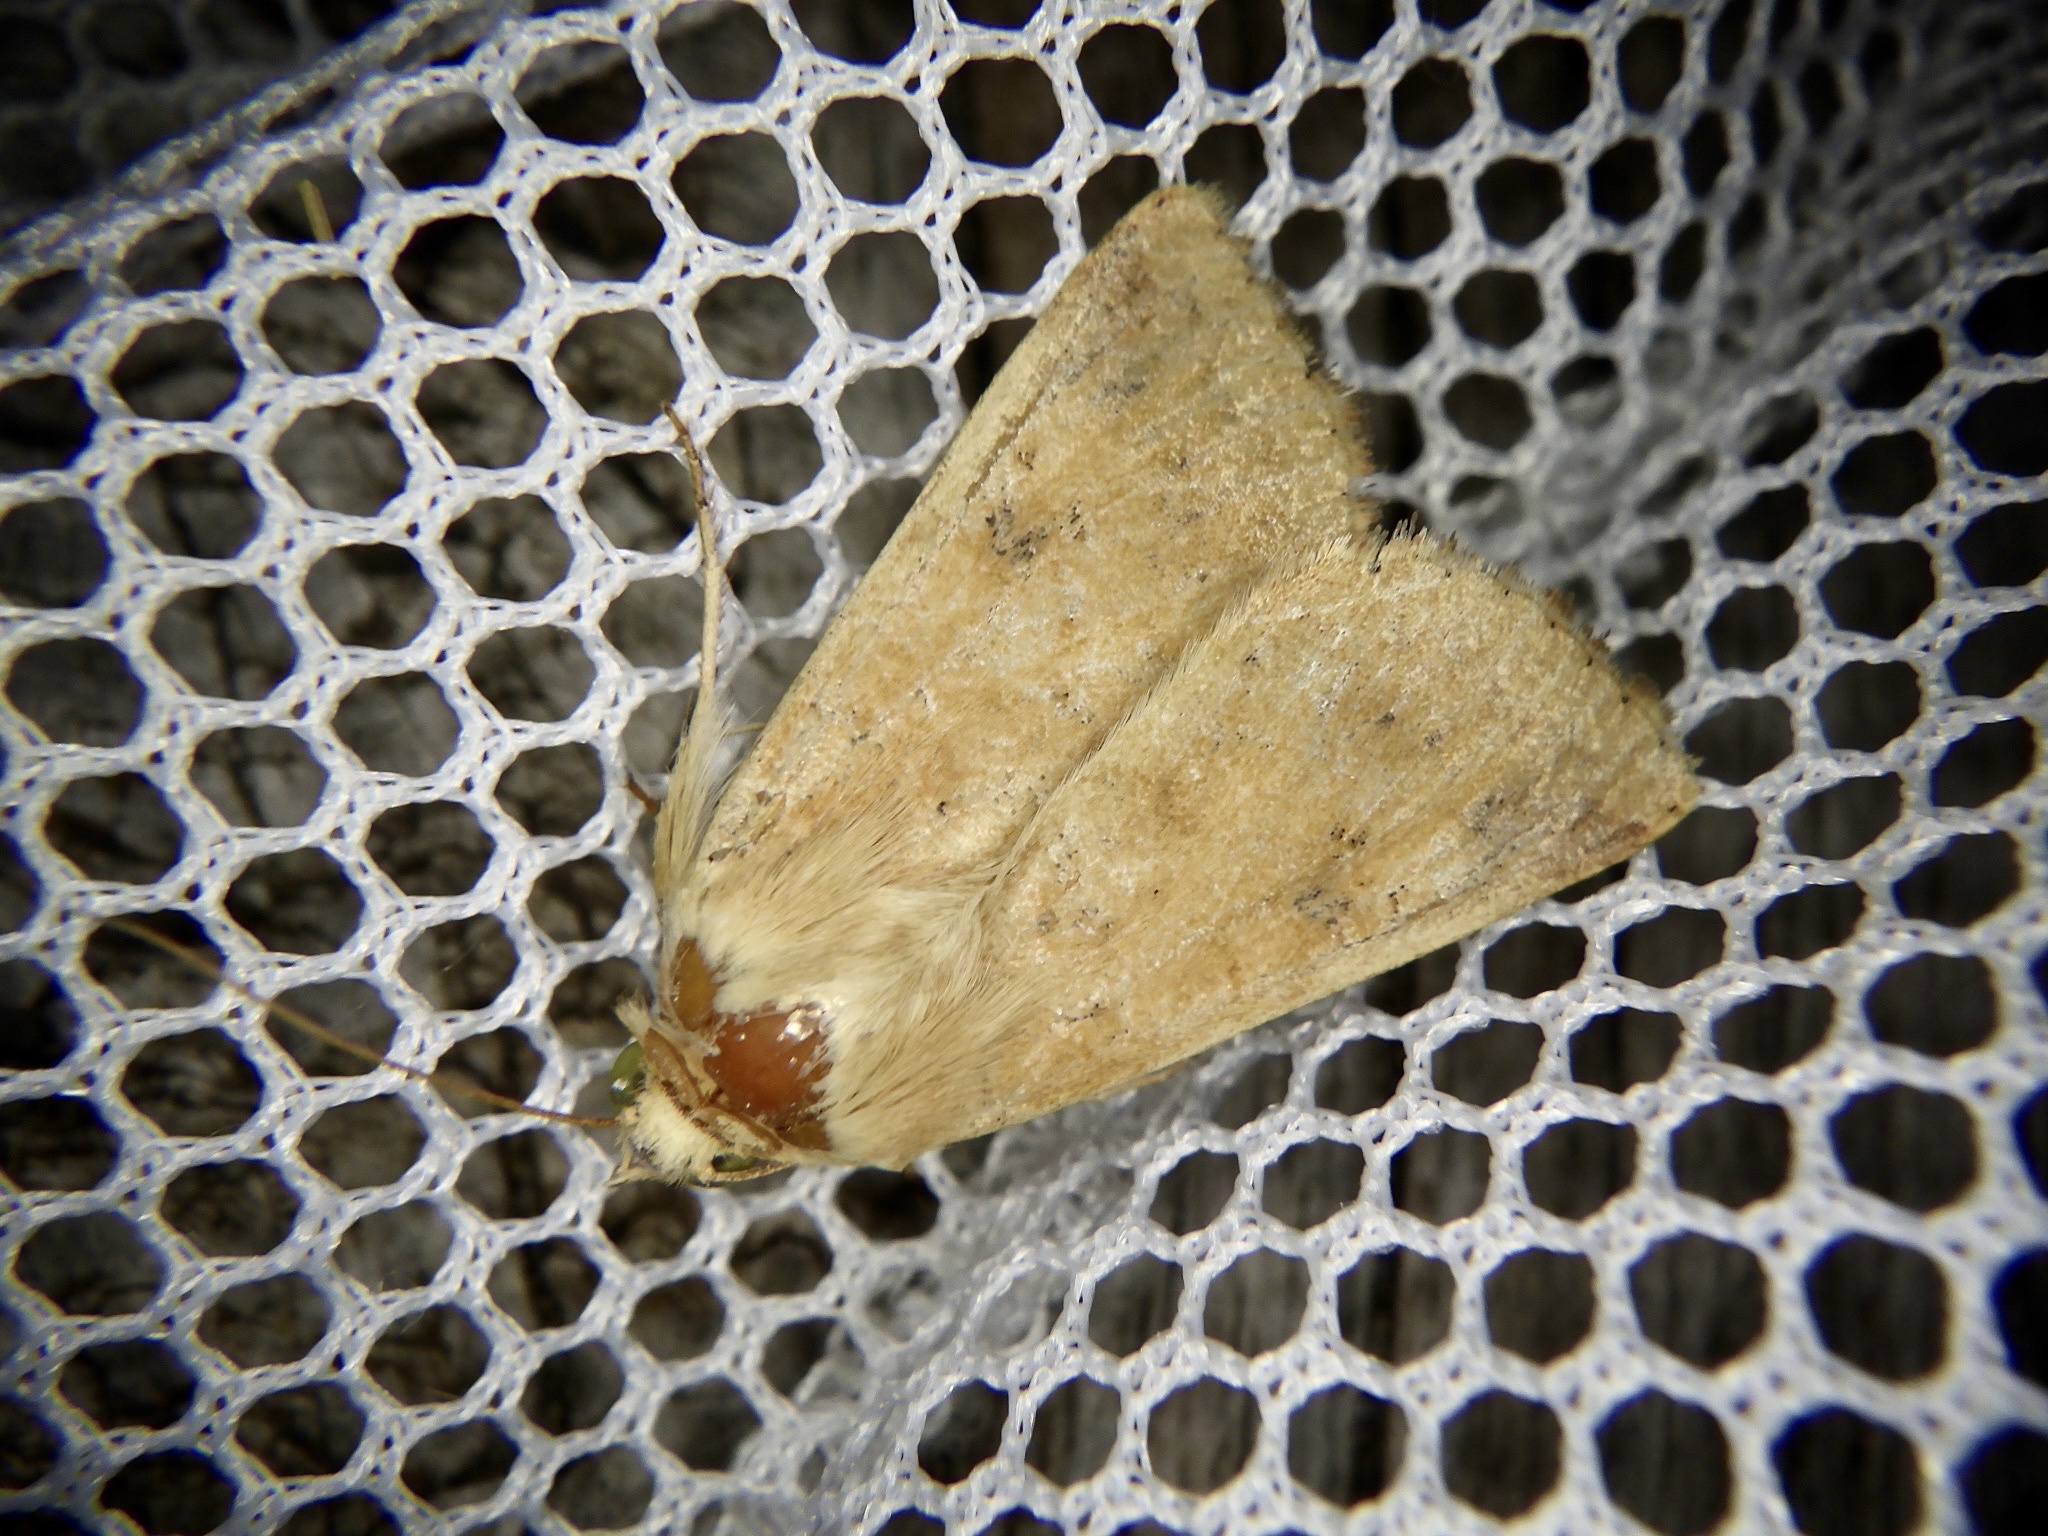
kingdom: Animalia
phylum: Arthropoda
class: Insecta
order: Lepidoptera
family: Noctuidae
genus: Helicoverpa
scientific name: Helicoverpa armigera
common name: Cotton bollworm
